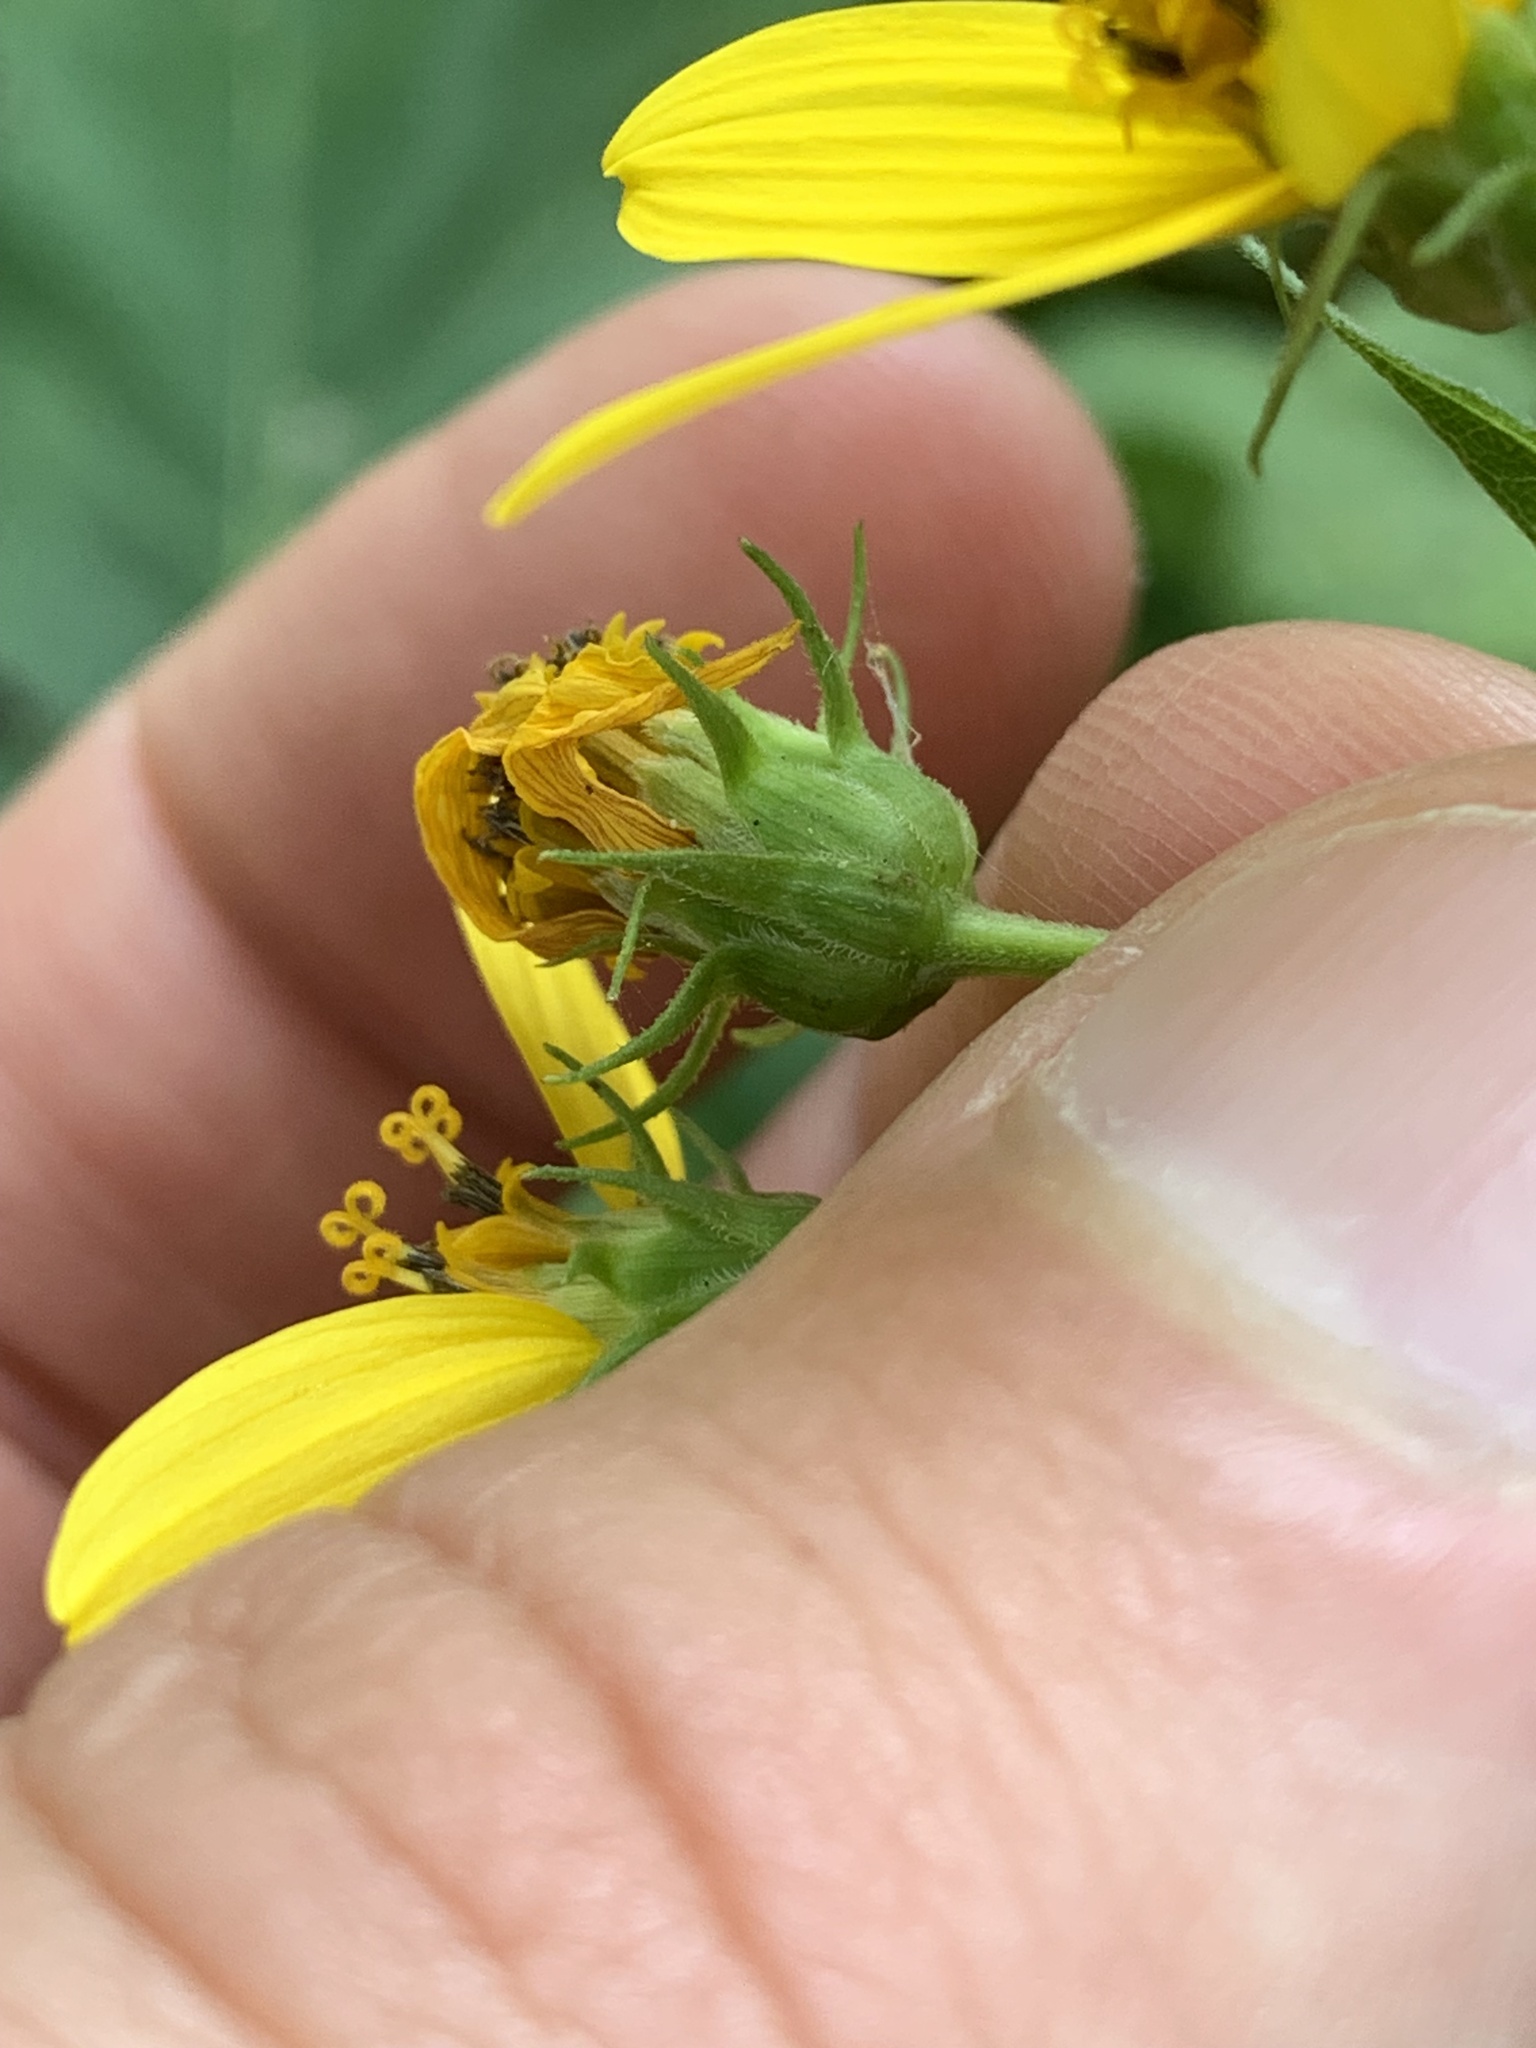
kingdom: Plantae
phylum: Tracheophyta
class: Magnoliopsida
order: Asterales
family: Asteraceae
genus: Helianthus
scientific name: Helianthus microcephalus
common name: Woodland sunflower
